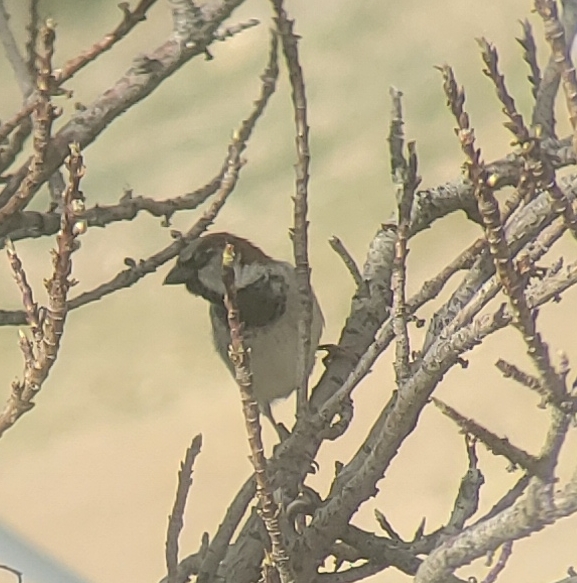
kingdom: Animalia
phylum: Chordata
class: Aves
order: Passeriformes
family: Passeridae
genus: Passer
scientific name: Passer domesticus
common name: House sparrow
